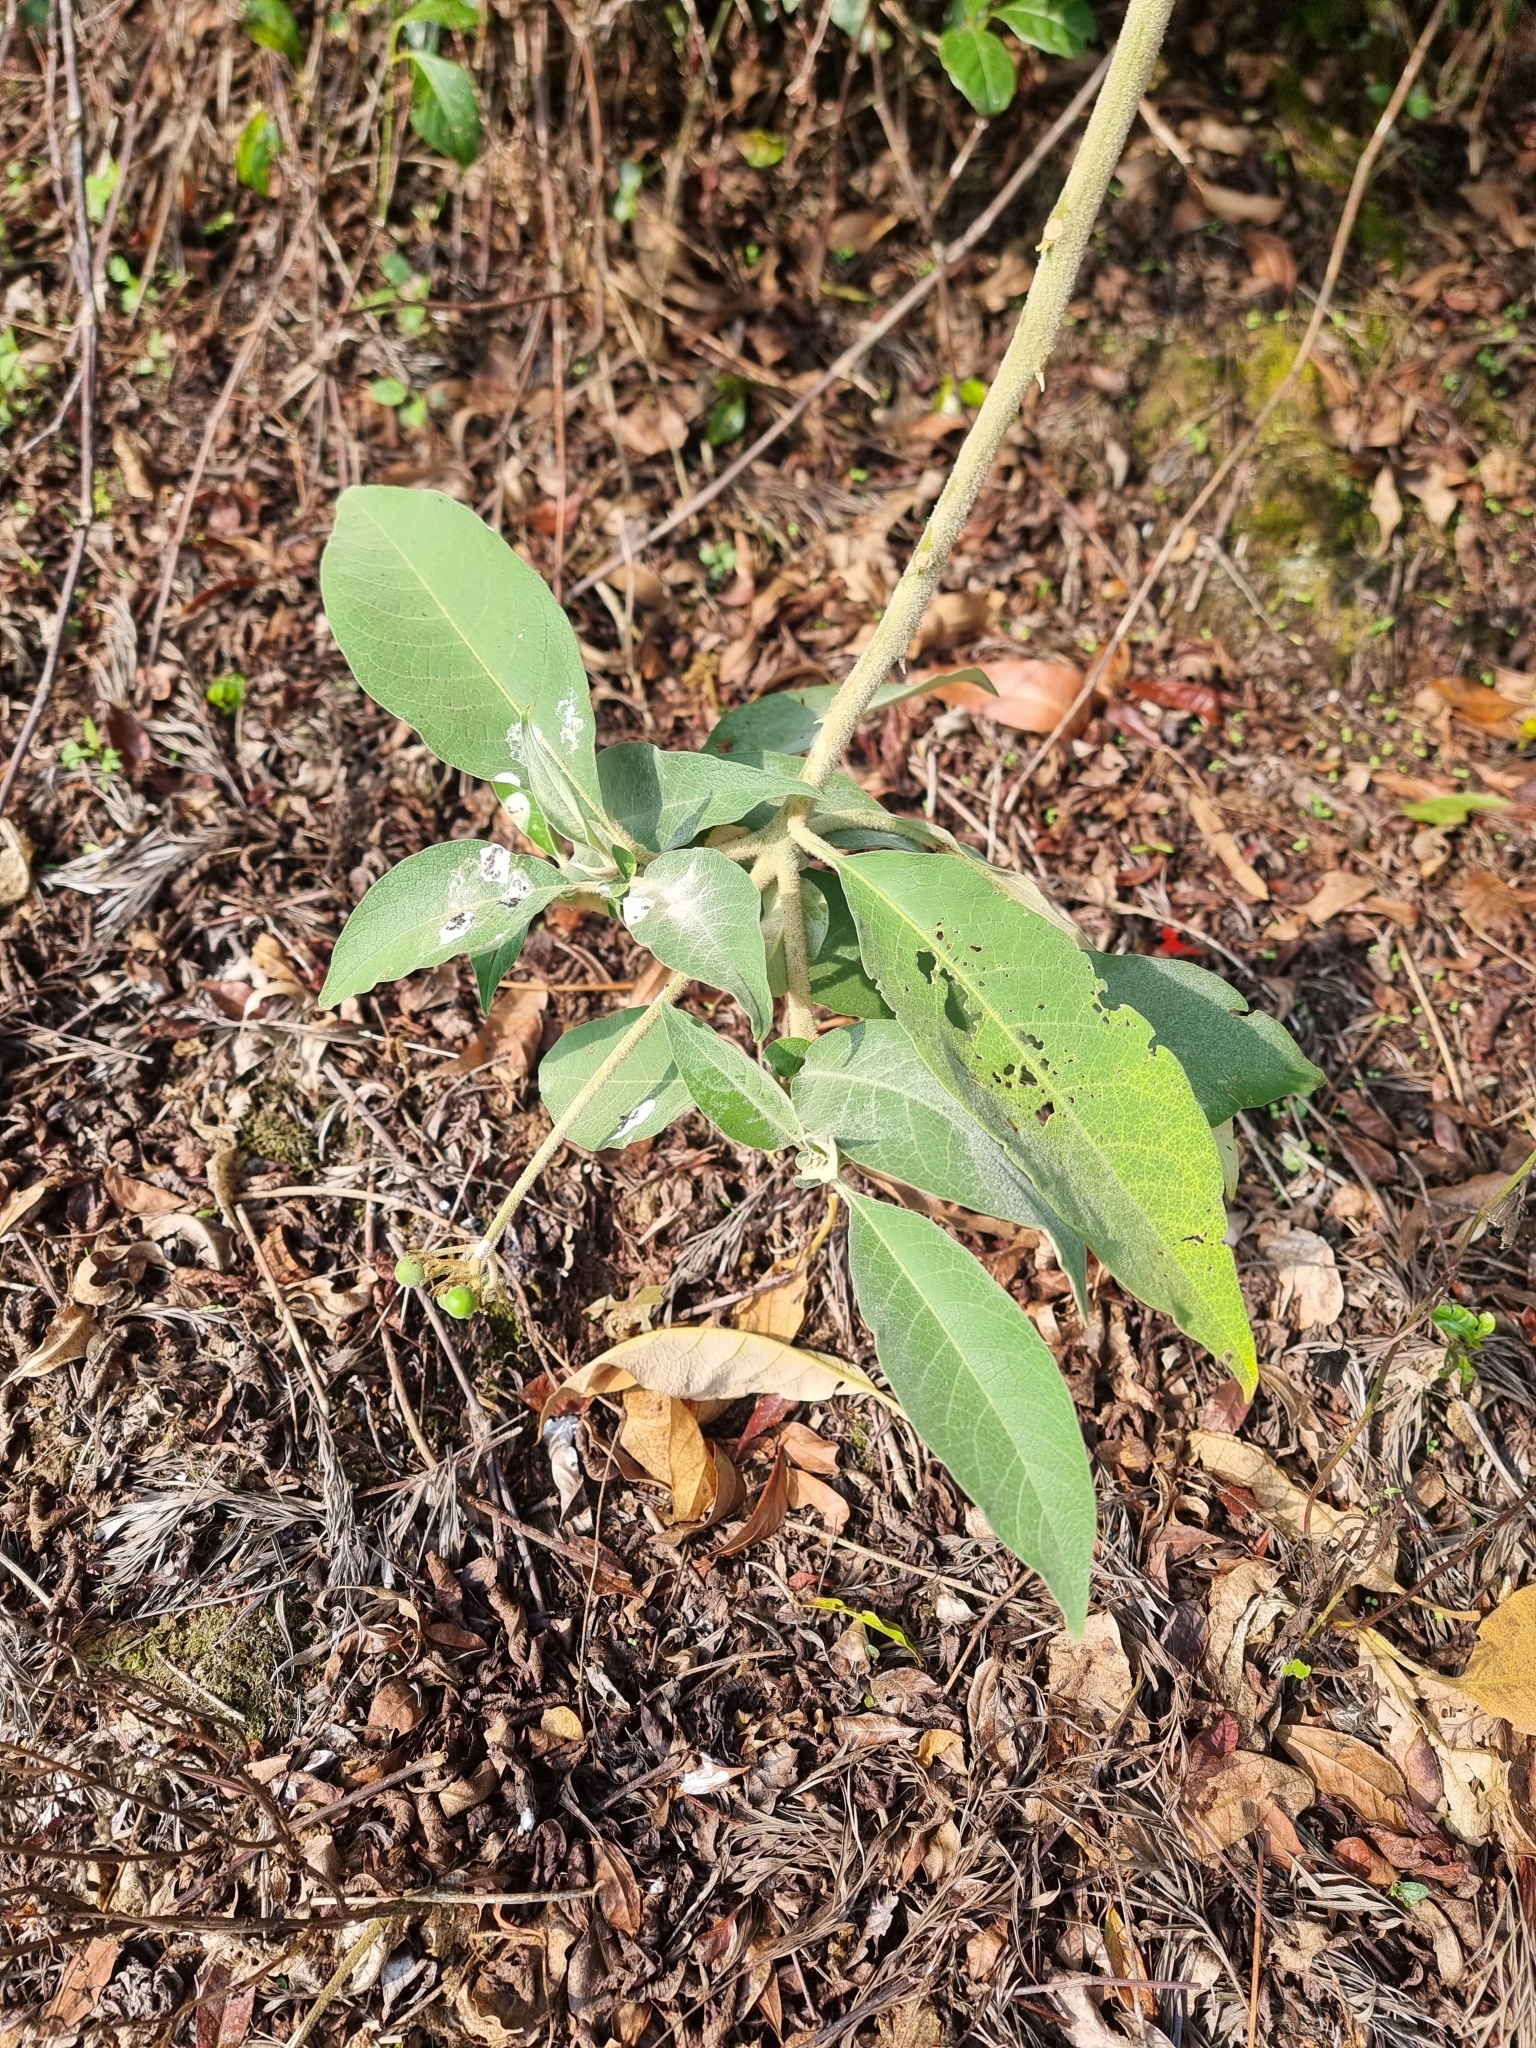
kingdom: Plantae
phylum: Tracheophyta
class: Magnoliopsida
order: Solanales
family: Solanaceae
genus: Solanum
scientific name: Solanum mauritianum
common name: Earleaf nightshade
